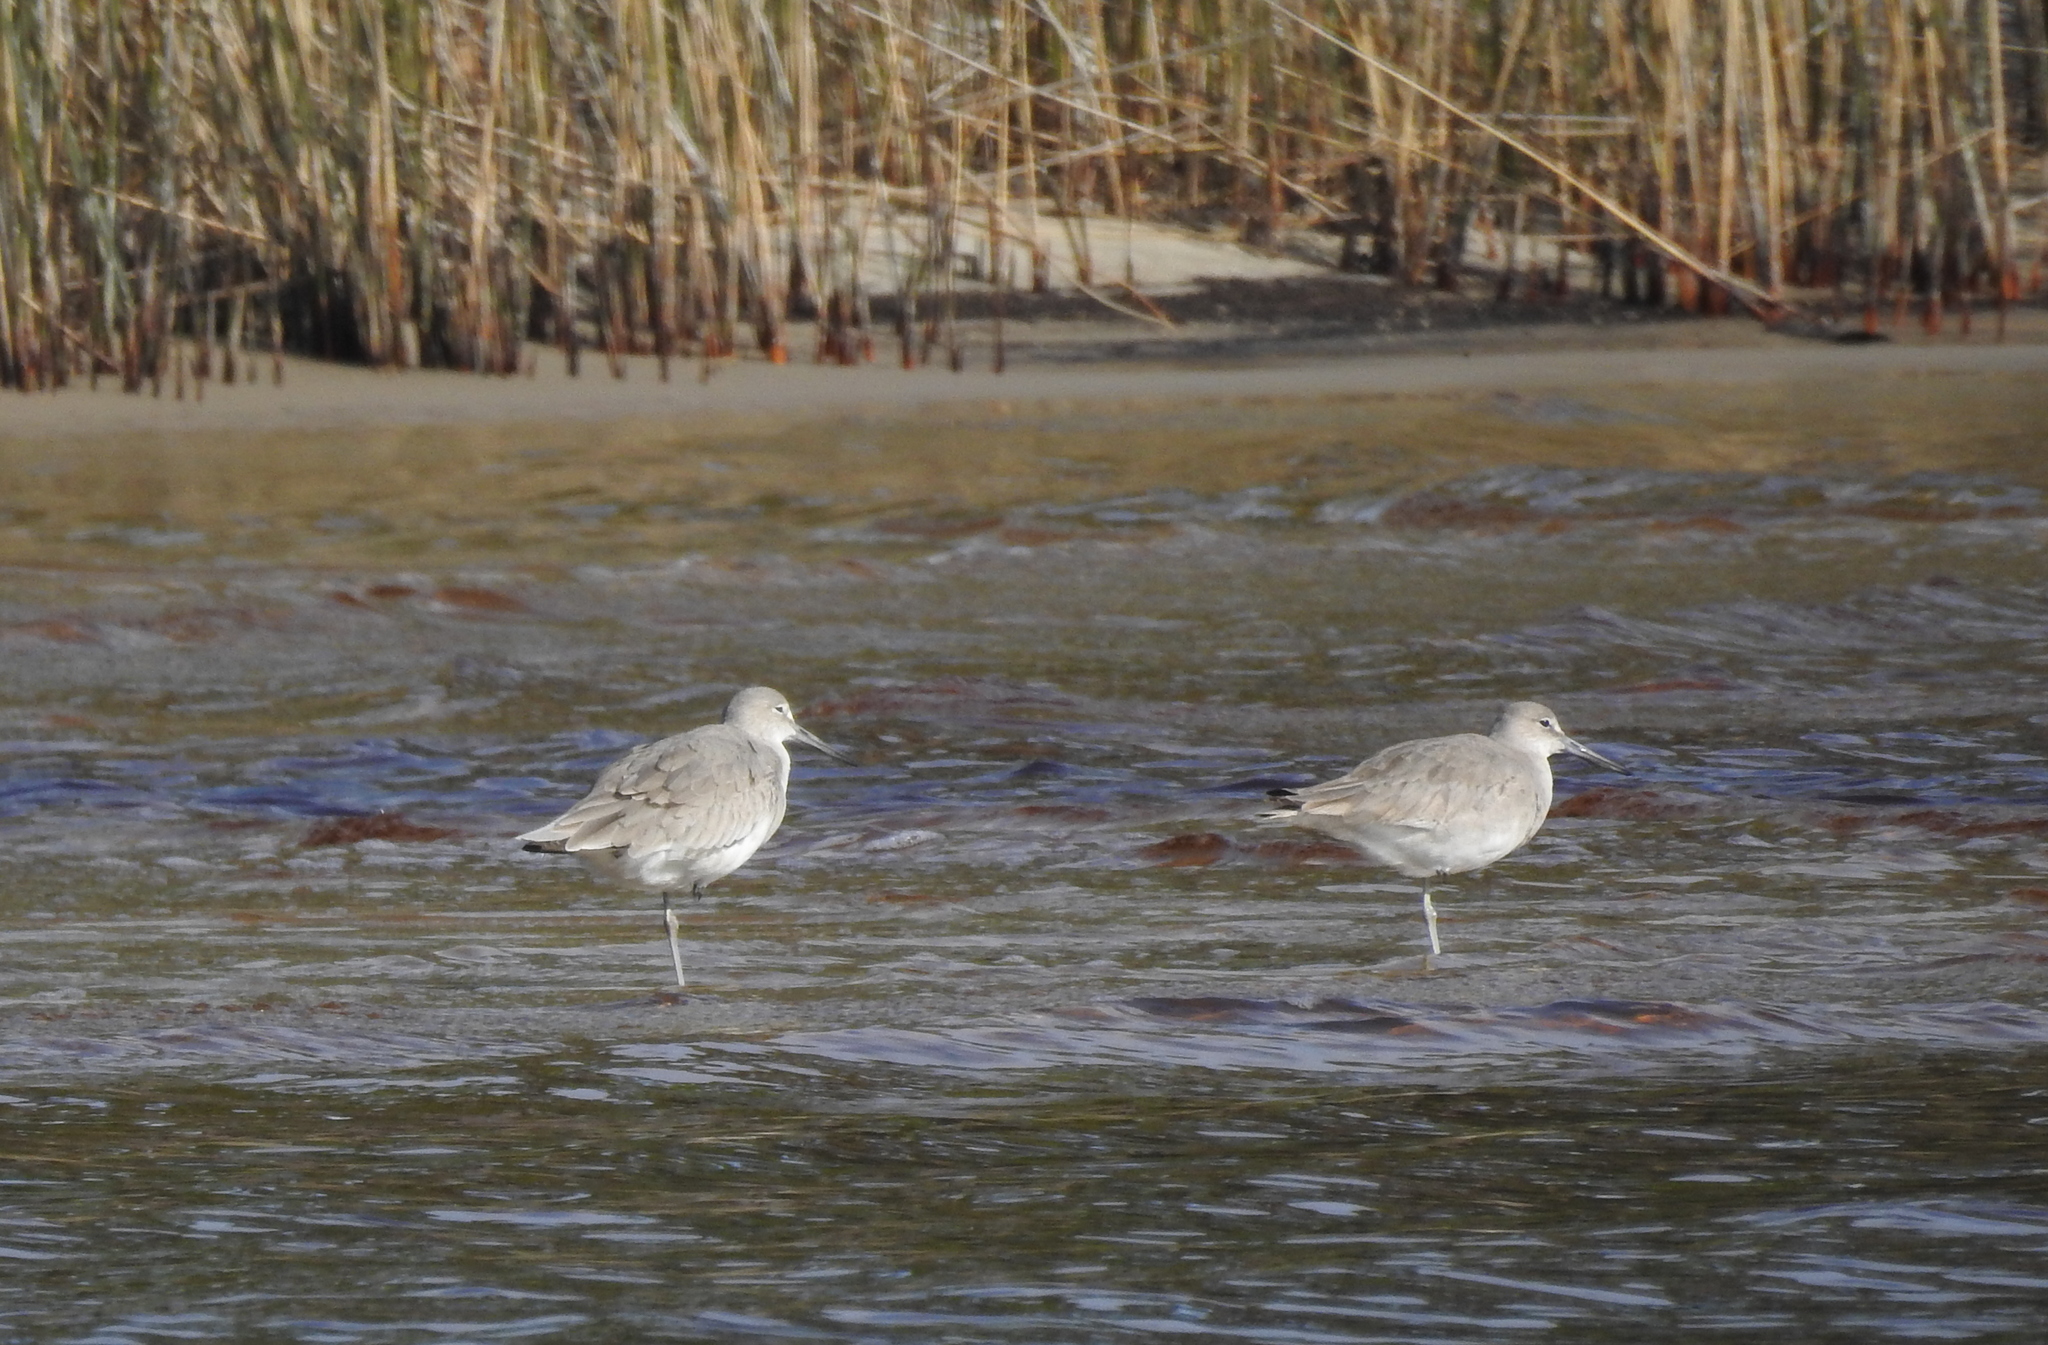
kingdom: Animalia
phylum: Chordata
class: Aves
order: Charadriiformes
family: Scolopacidae
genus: Tringa
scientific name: Tringa semipalmata
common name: Willet
